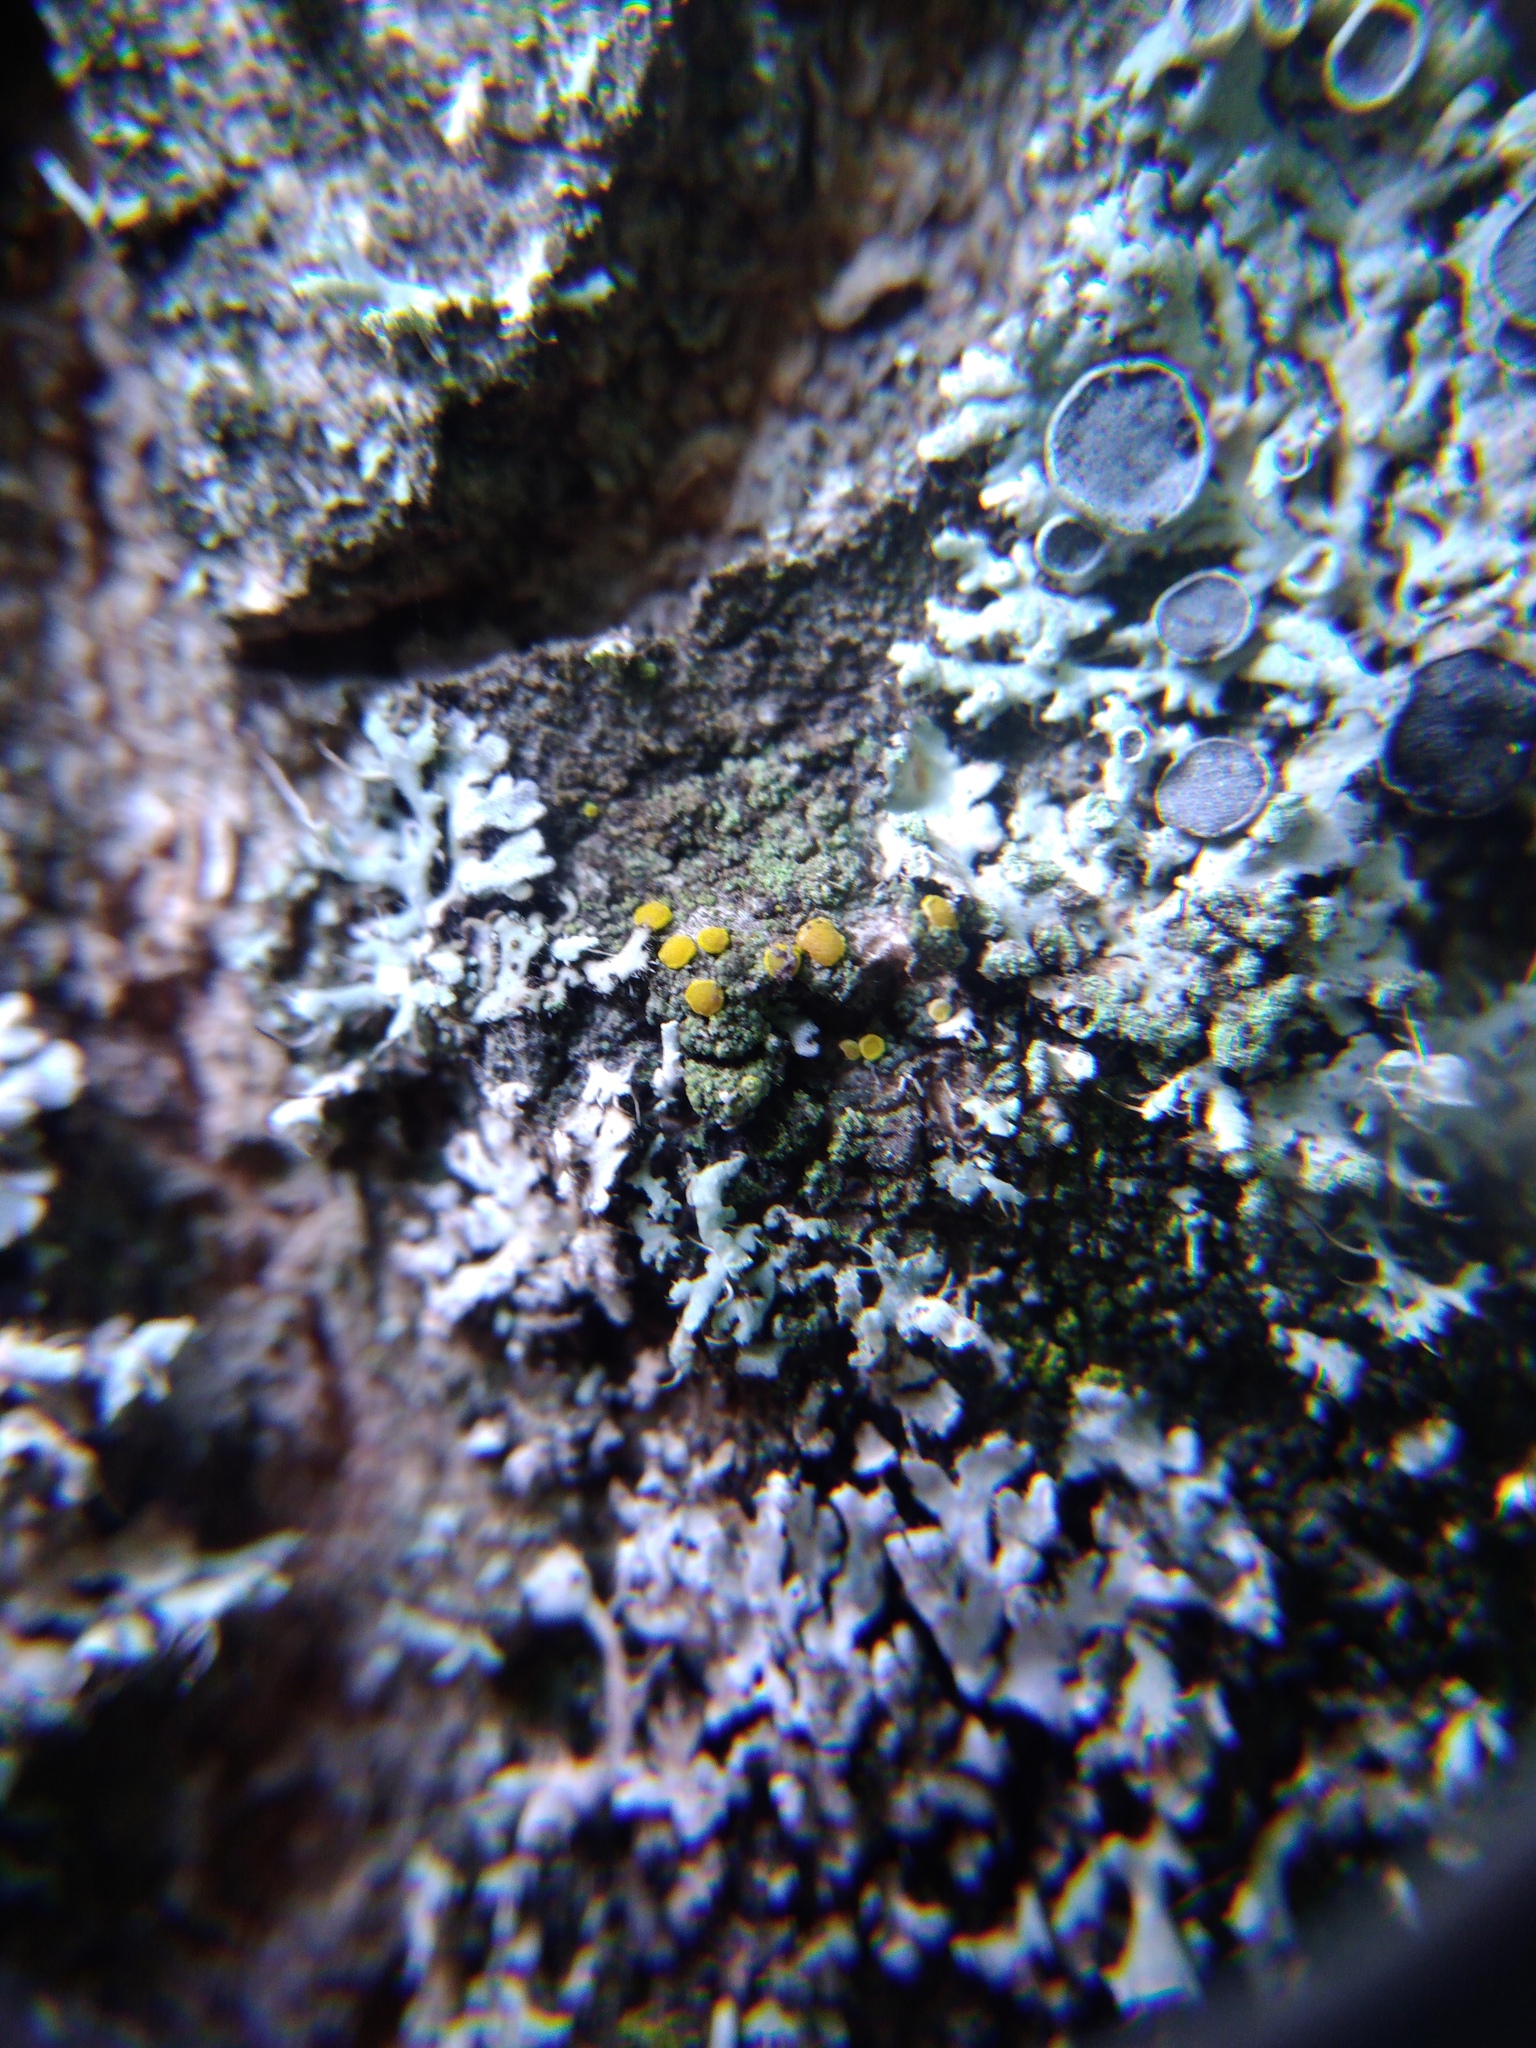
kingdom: Fungi
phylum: Ascomycota
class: Candelariomycetes
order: Candelariales
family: Candelariaceae
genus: Candelariella
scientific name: Candelariella xanthostigma
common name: Granular goldspeck lichen
